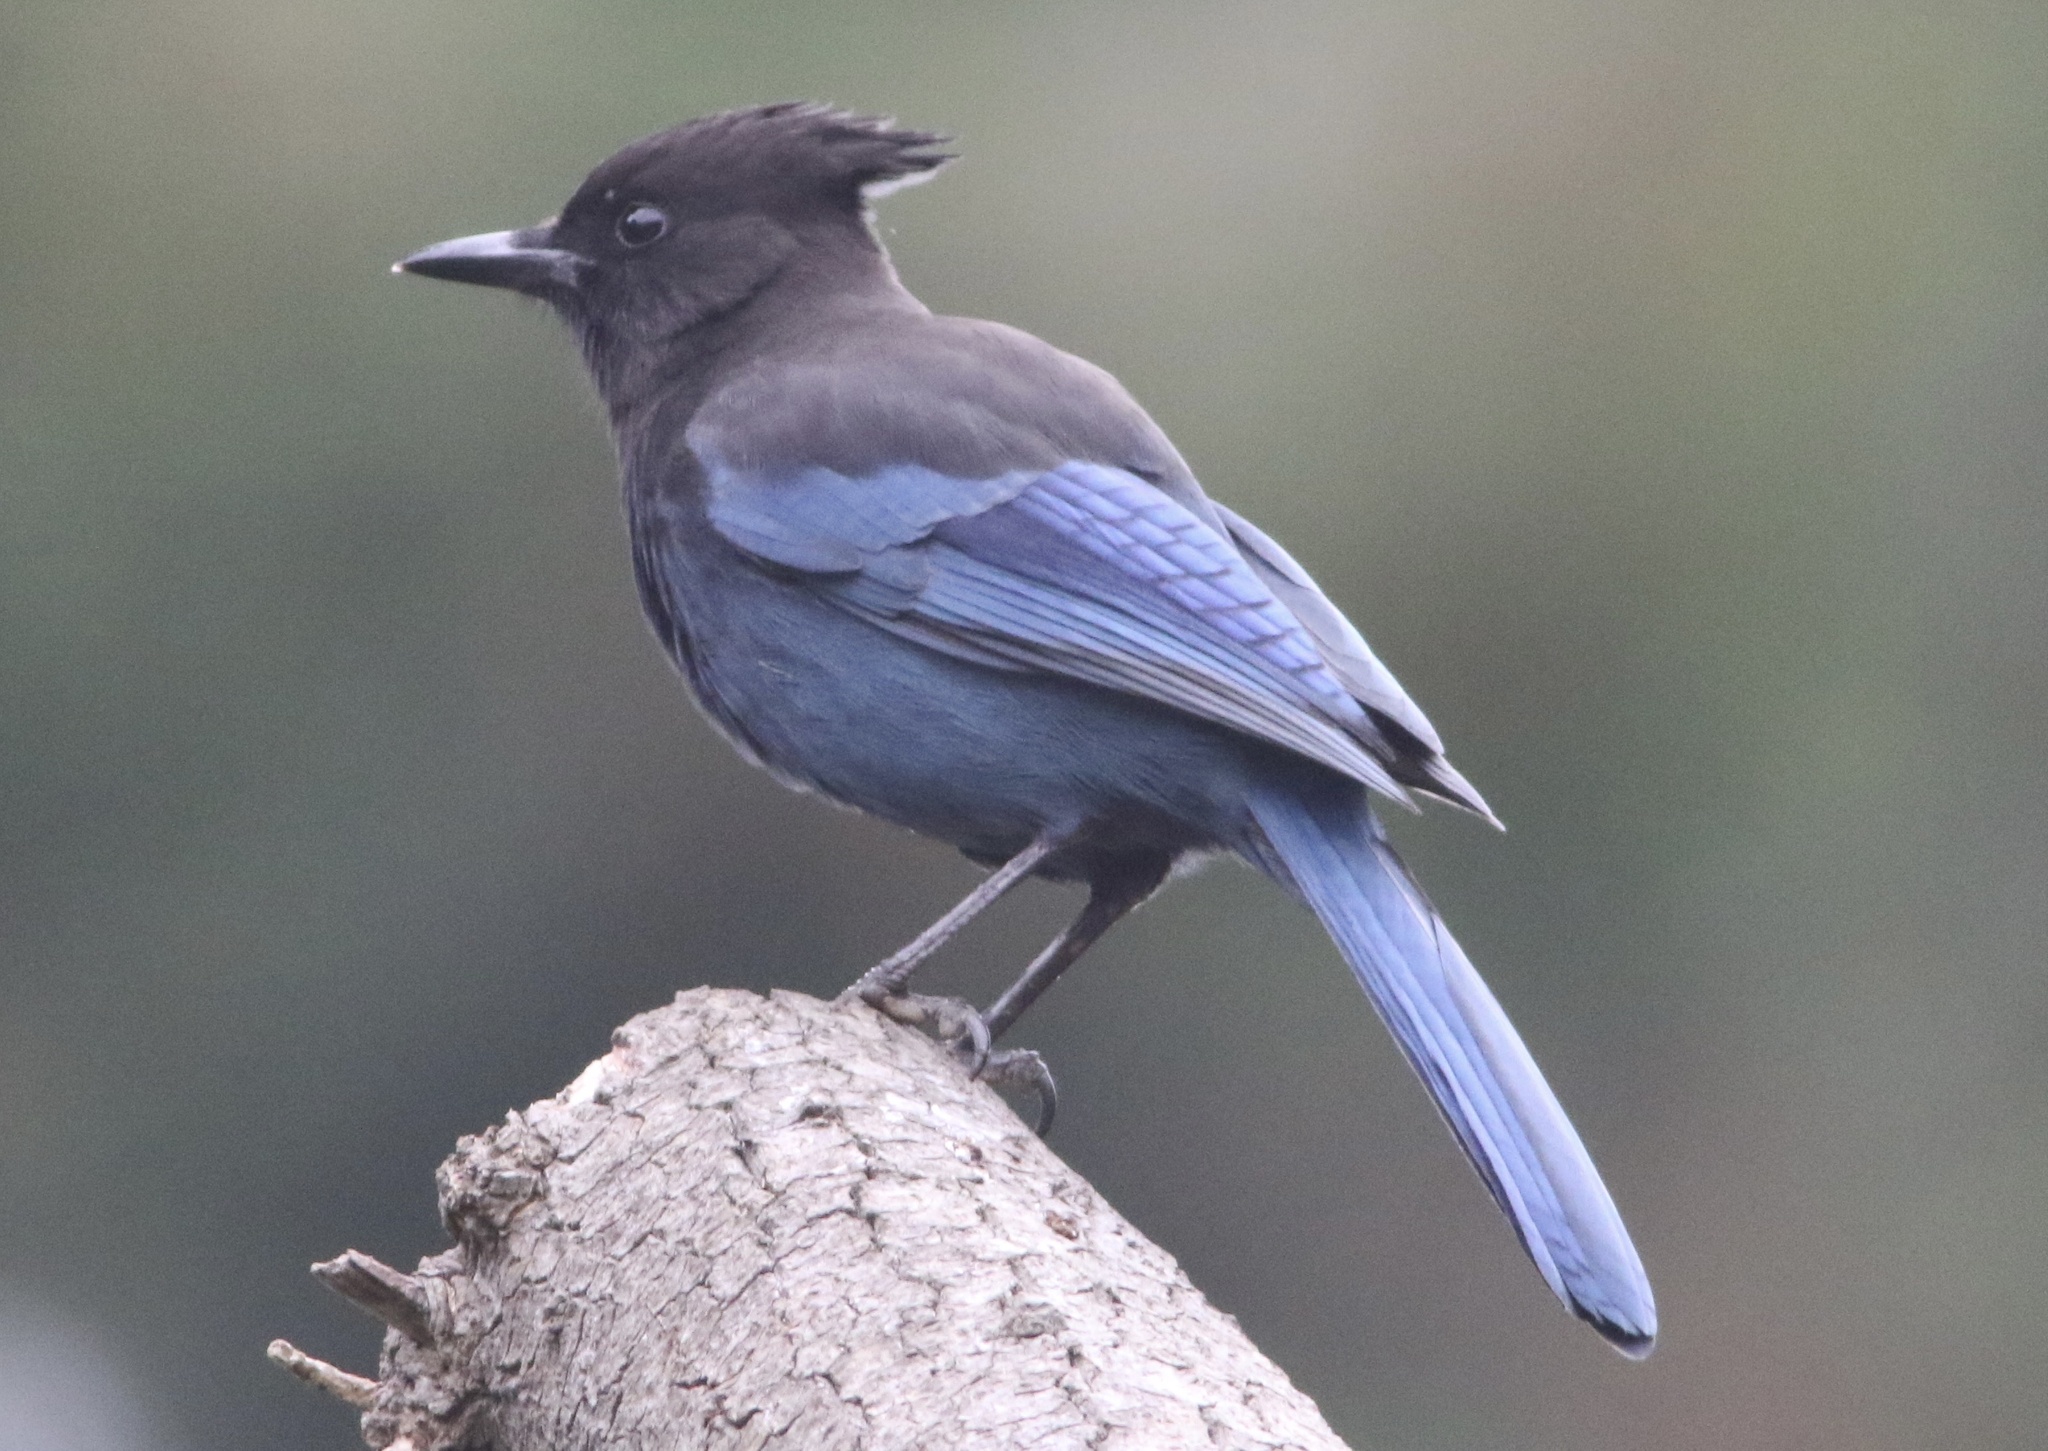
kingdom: Animalia
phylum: Chordata
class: Aves
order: Passeriformes
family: Corvidae
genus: Cyanocitta
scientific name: Cyanocitta stelleri
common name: Steller's jay
